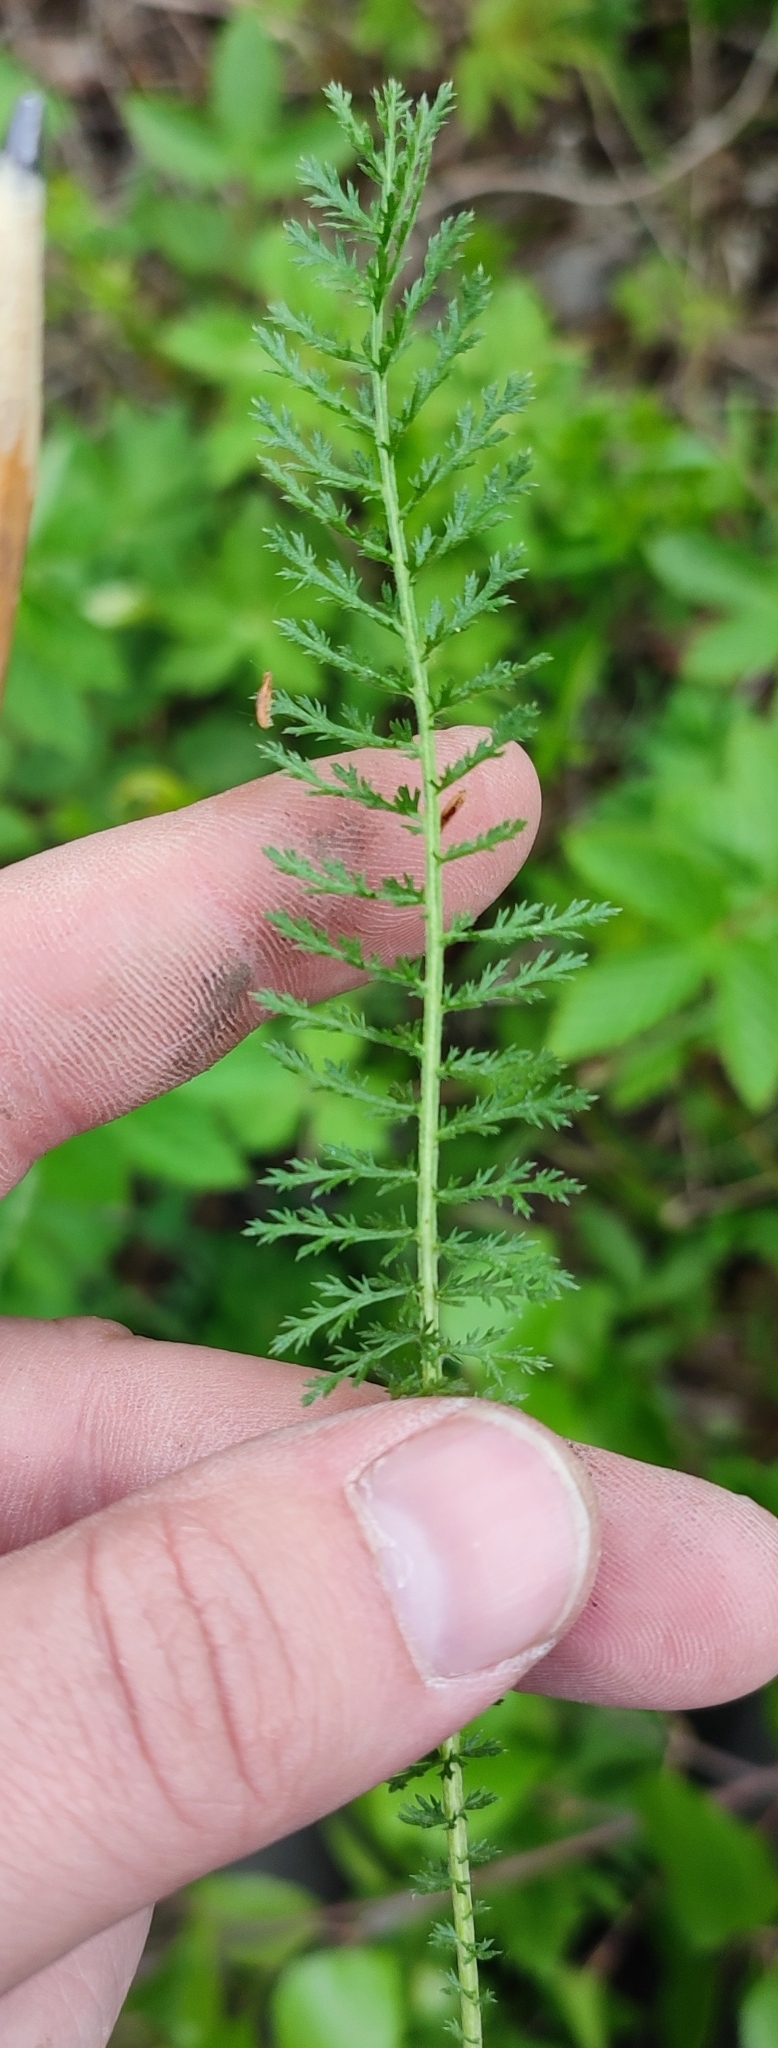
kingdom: Plantae
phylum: Tracheophyta
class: Magnoliopsida
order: Asterales
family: Asteraceae
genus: Achillea
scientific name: Achillea asiatica
